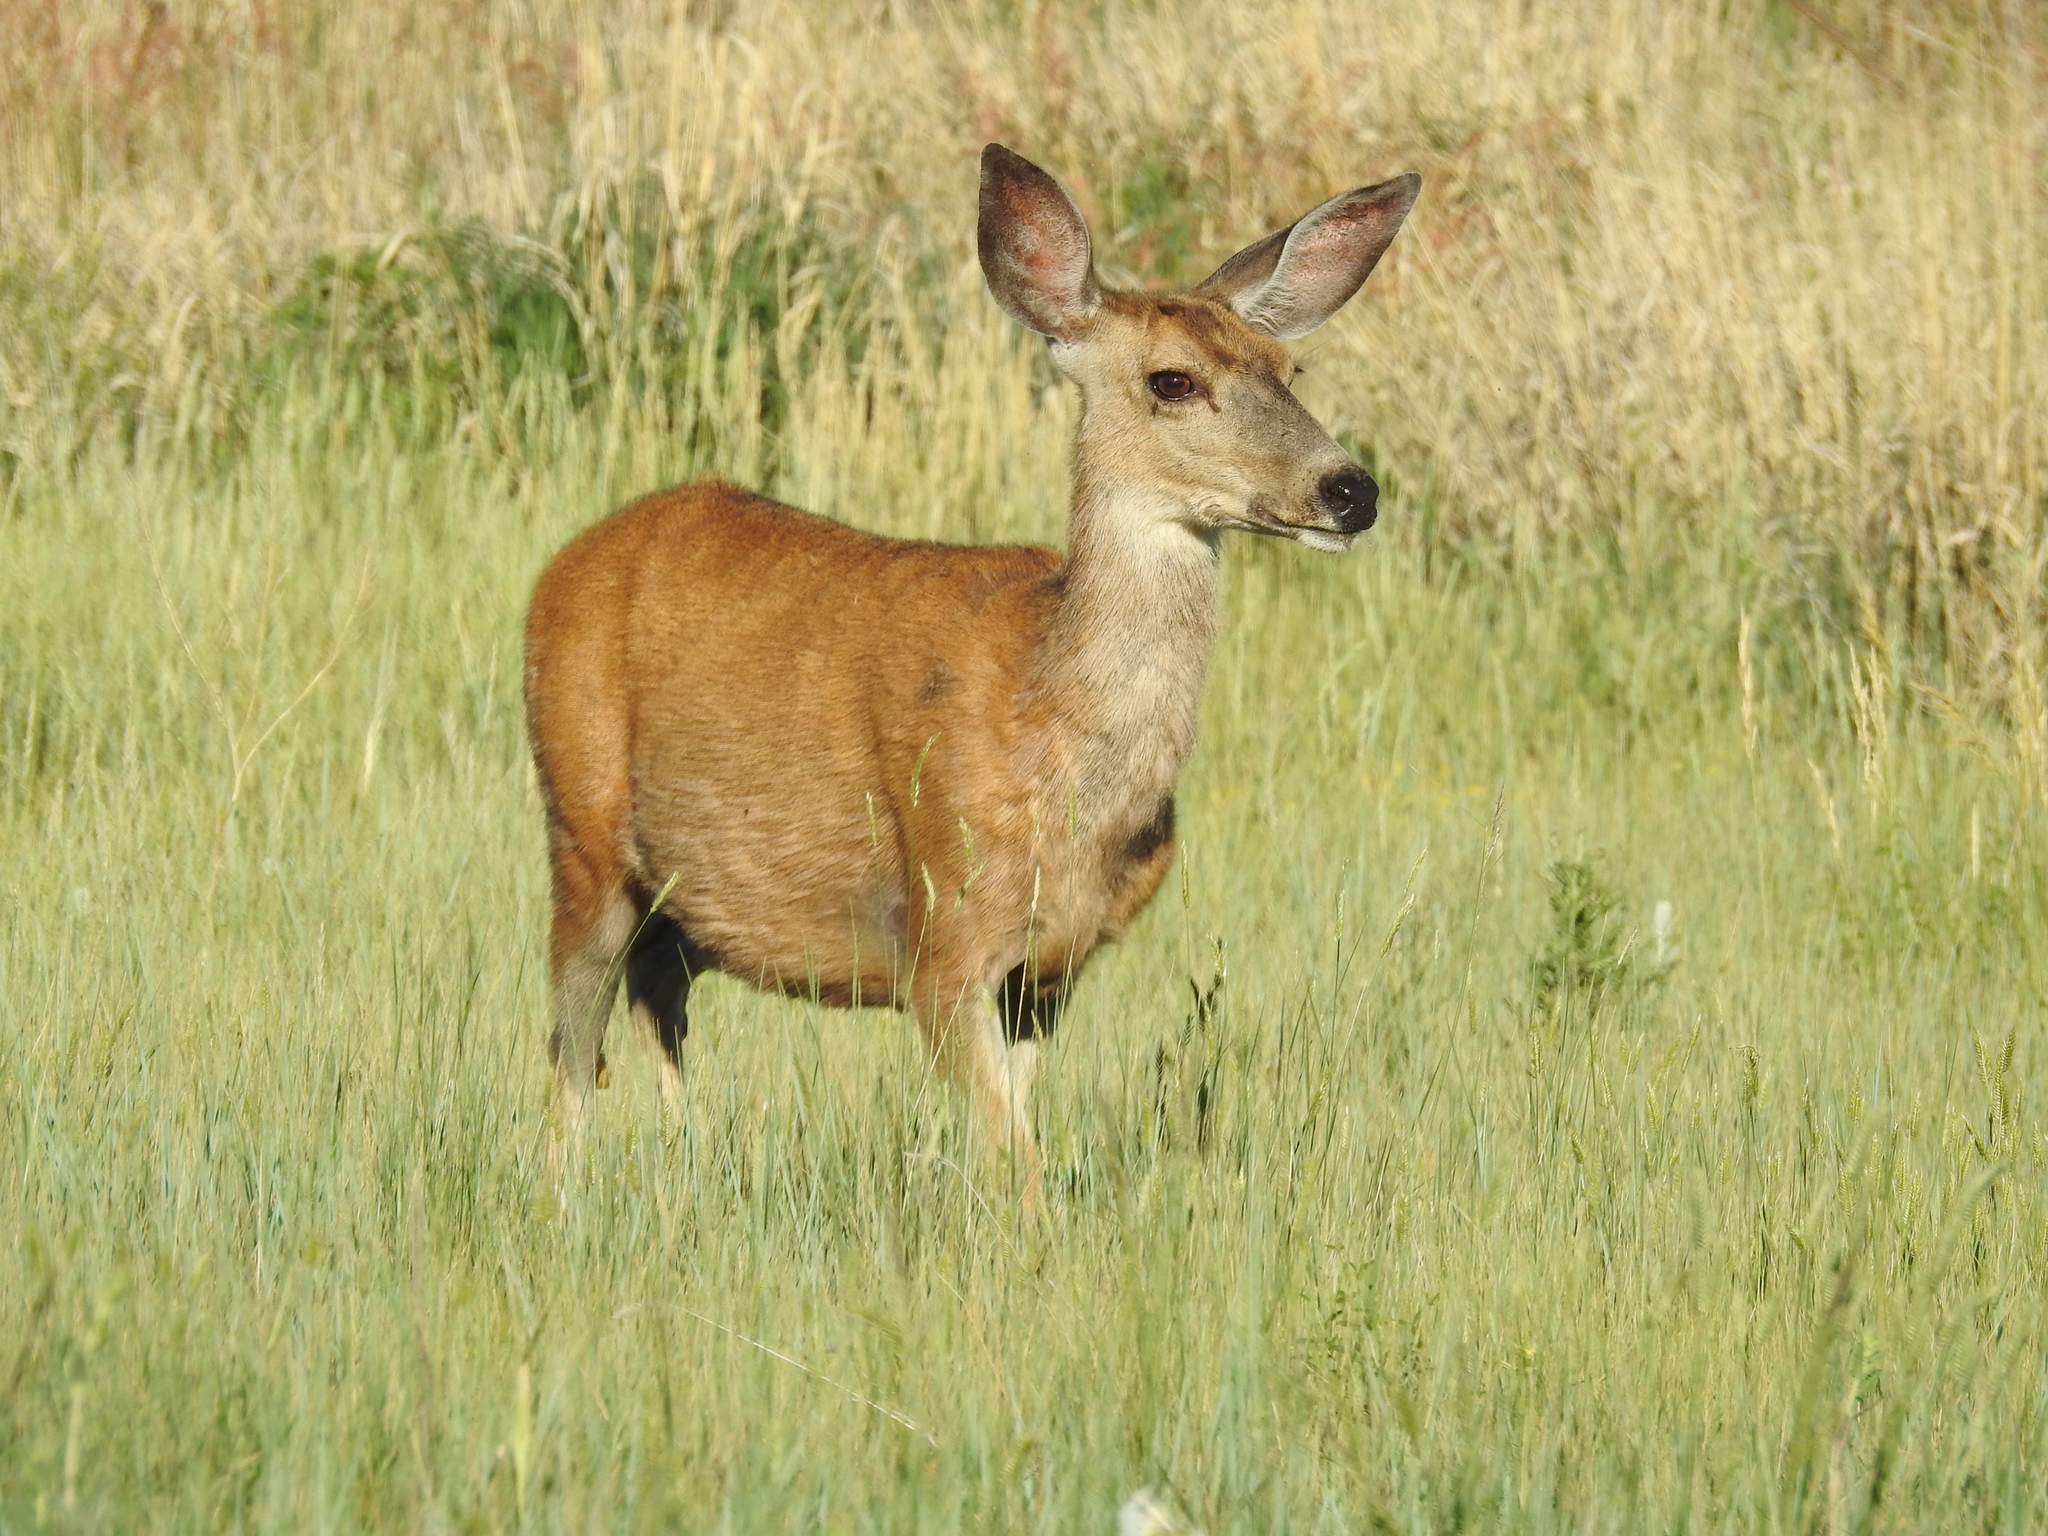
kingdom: Animalia
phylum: Chordata
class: Mammalia
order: Artiodactyla
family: Cervidae
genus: Odocoileus
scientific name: Odocoileus hemionus
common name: Mule deer
